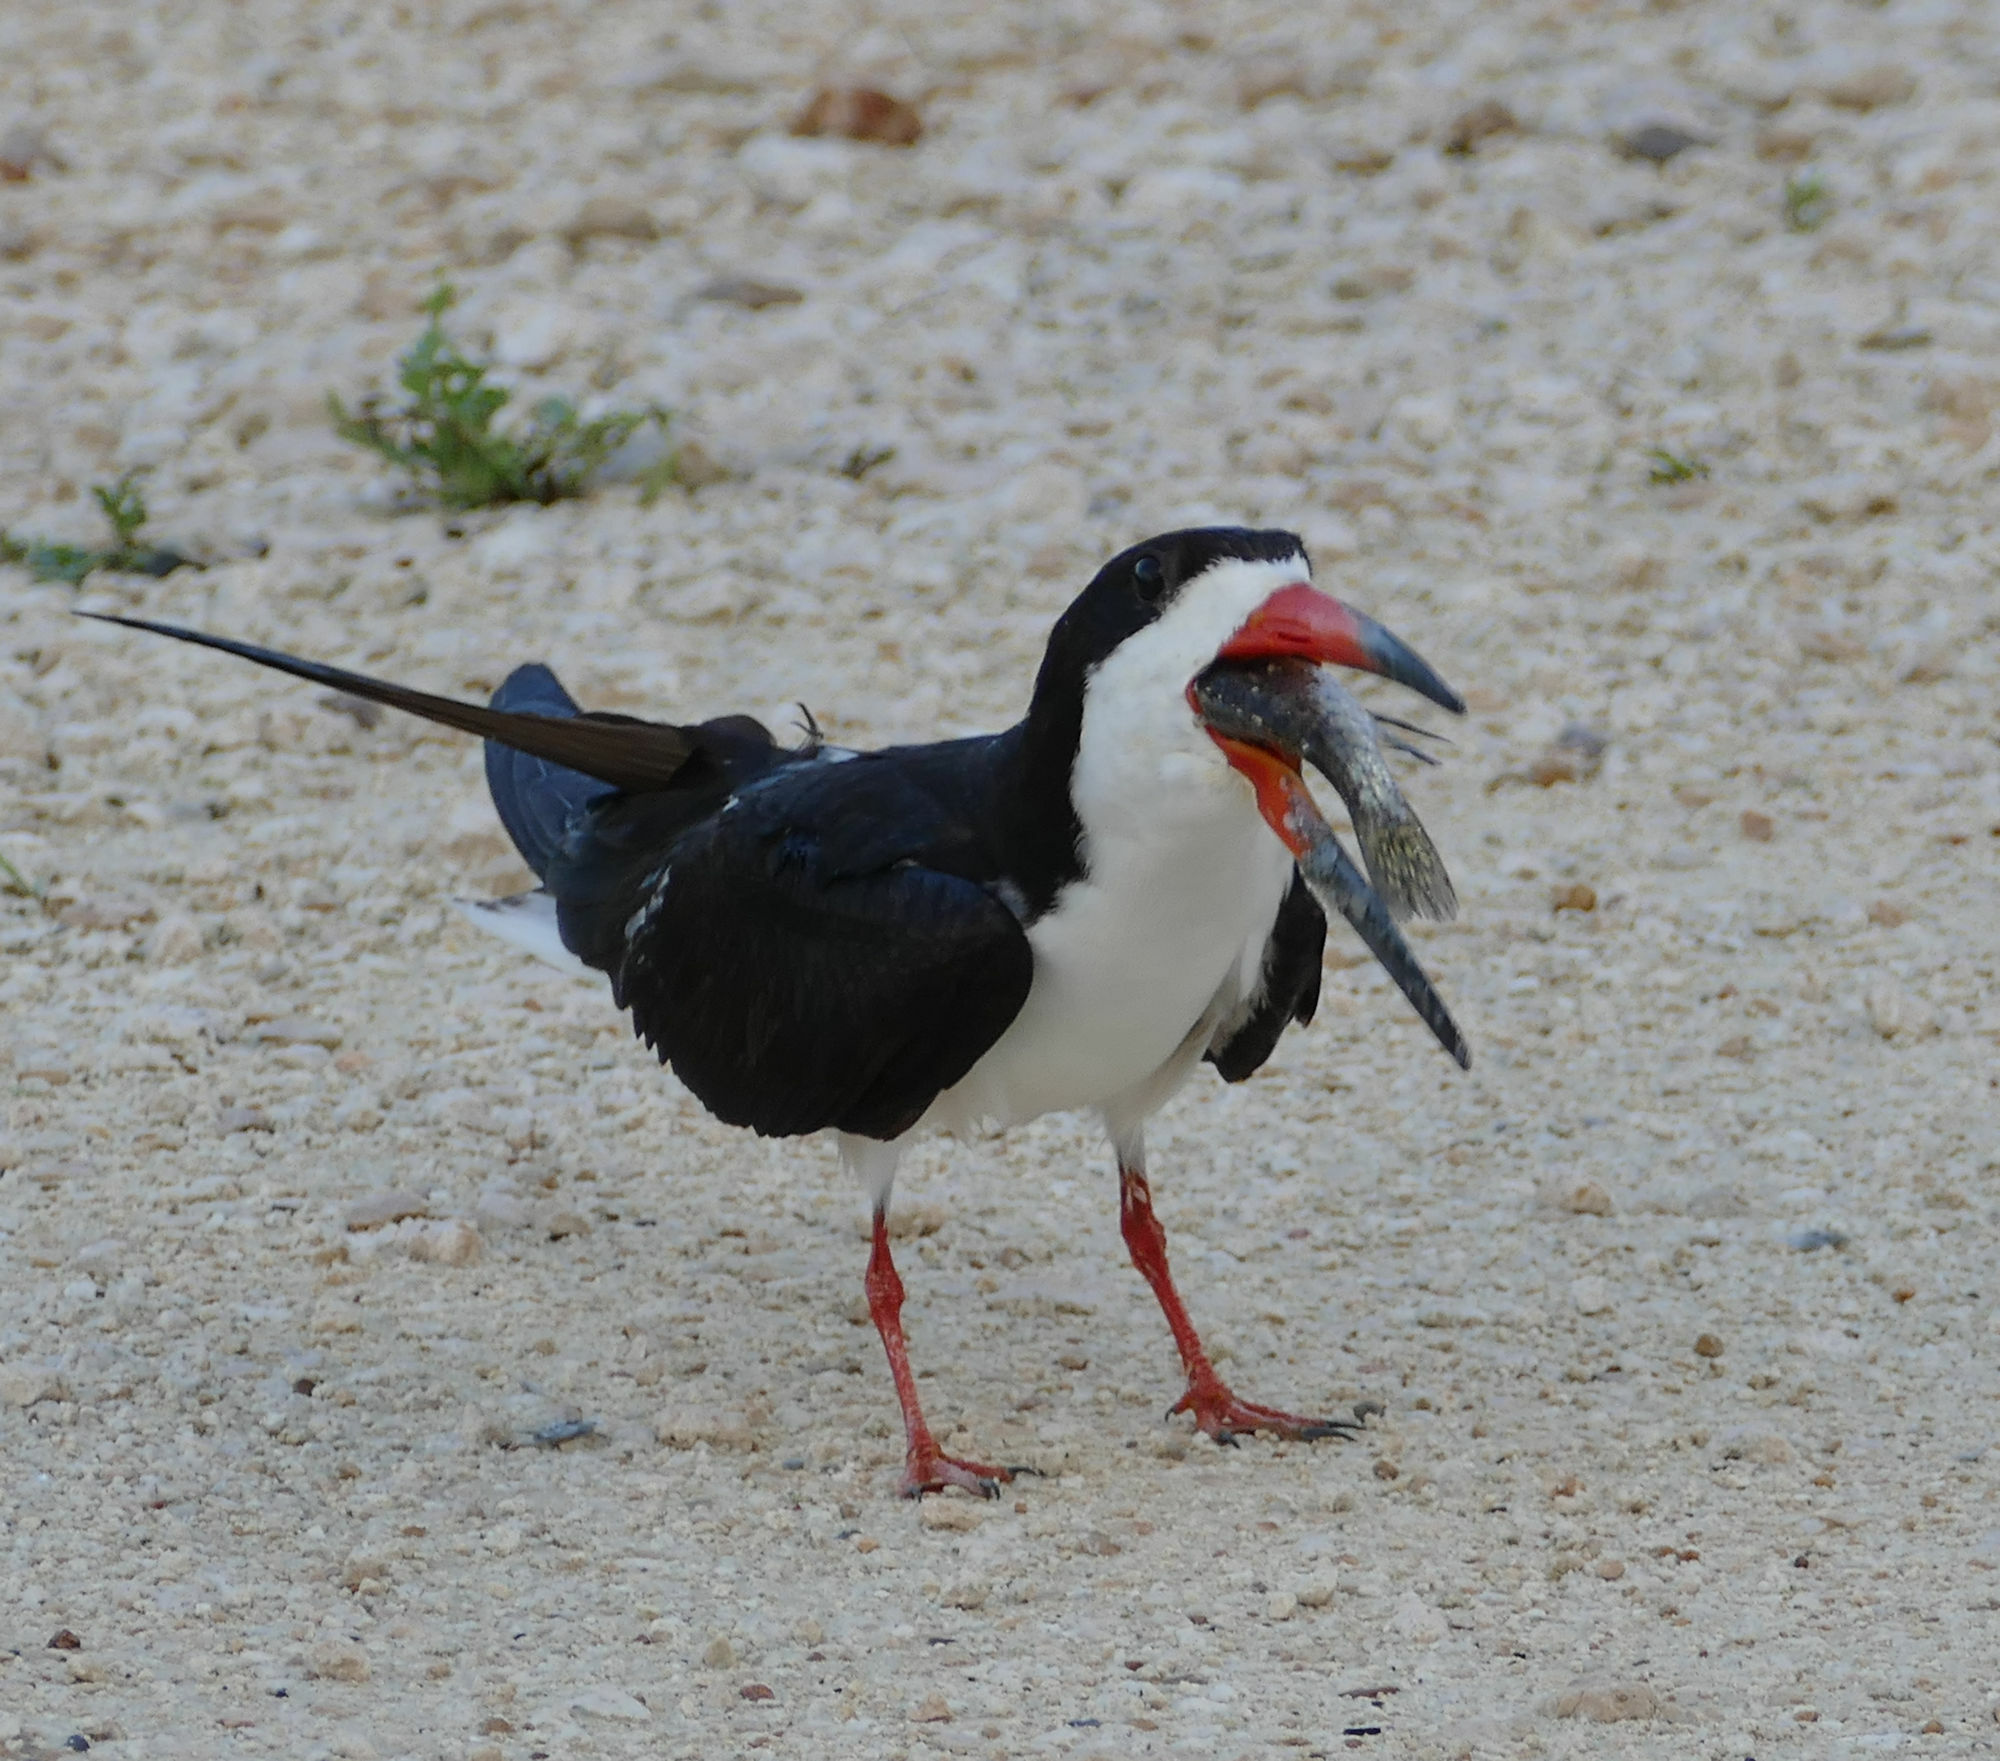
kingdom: Animalia
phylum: Chordata
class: Aves
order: Charadriiformes
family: Laridae
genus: Rynchops
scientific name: Rynchops niger
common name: Black skimmer
